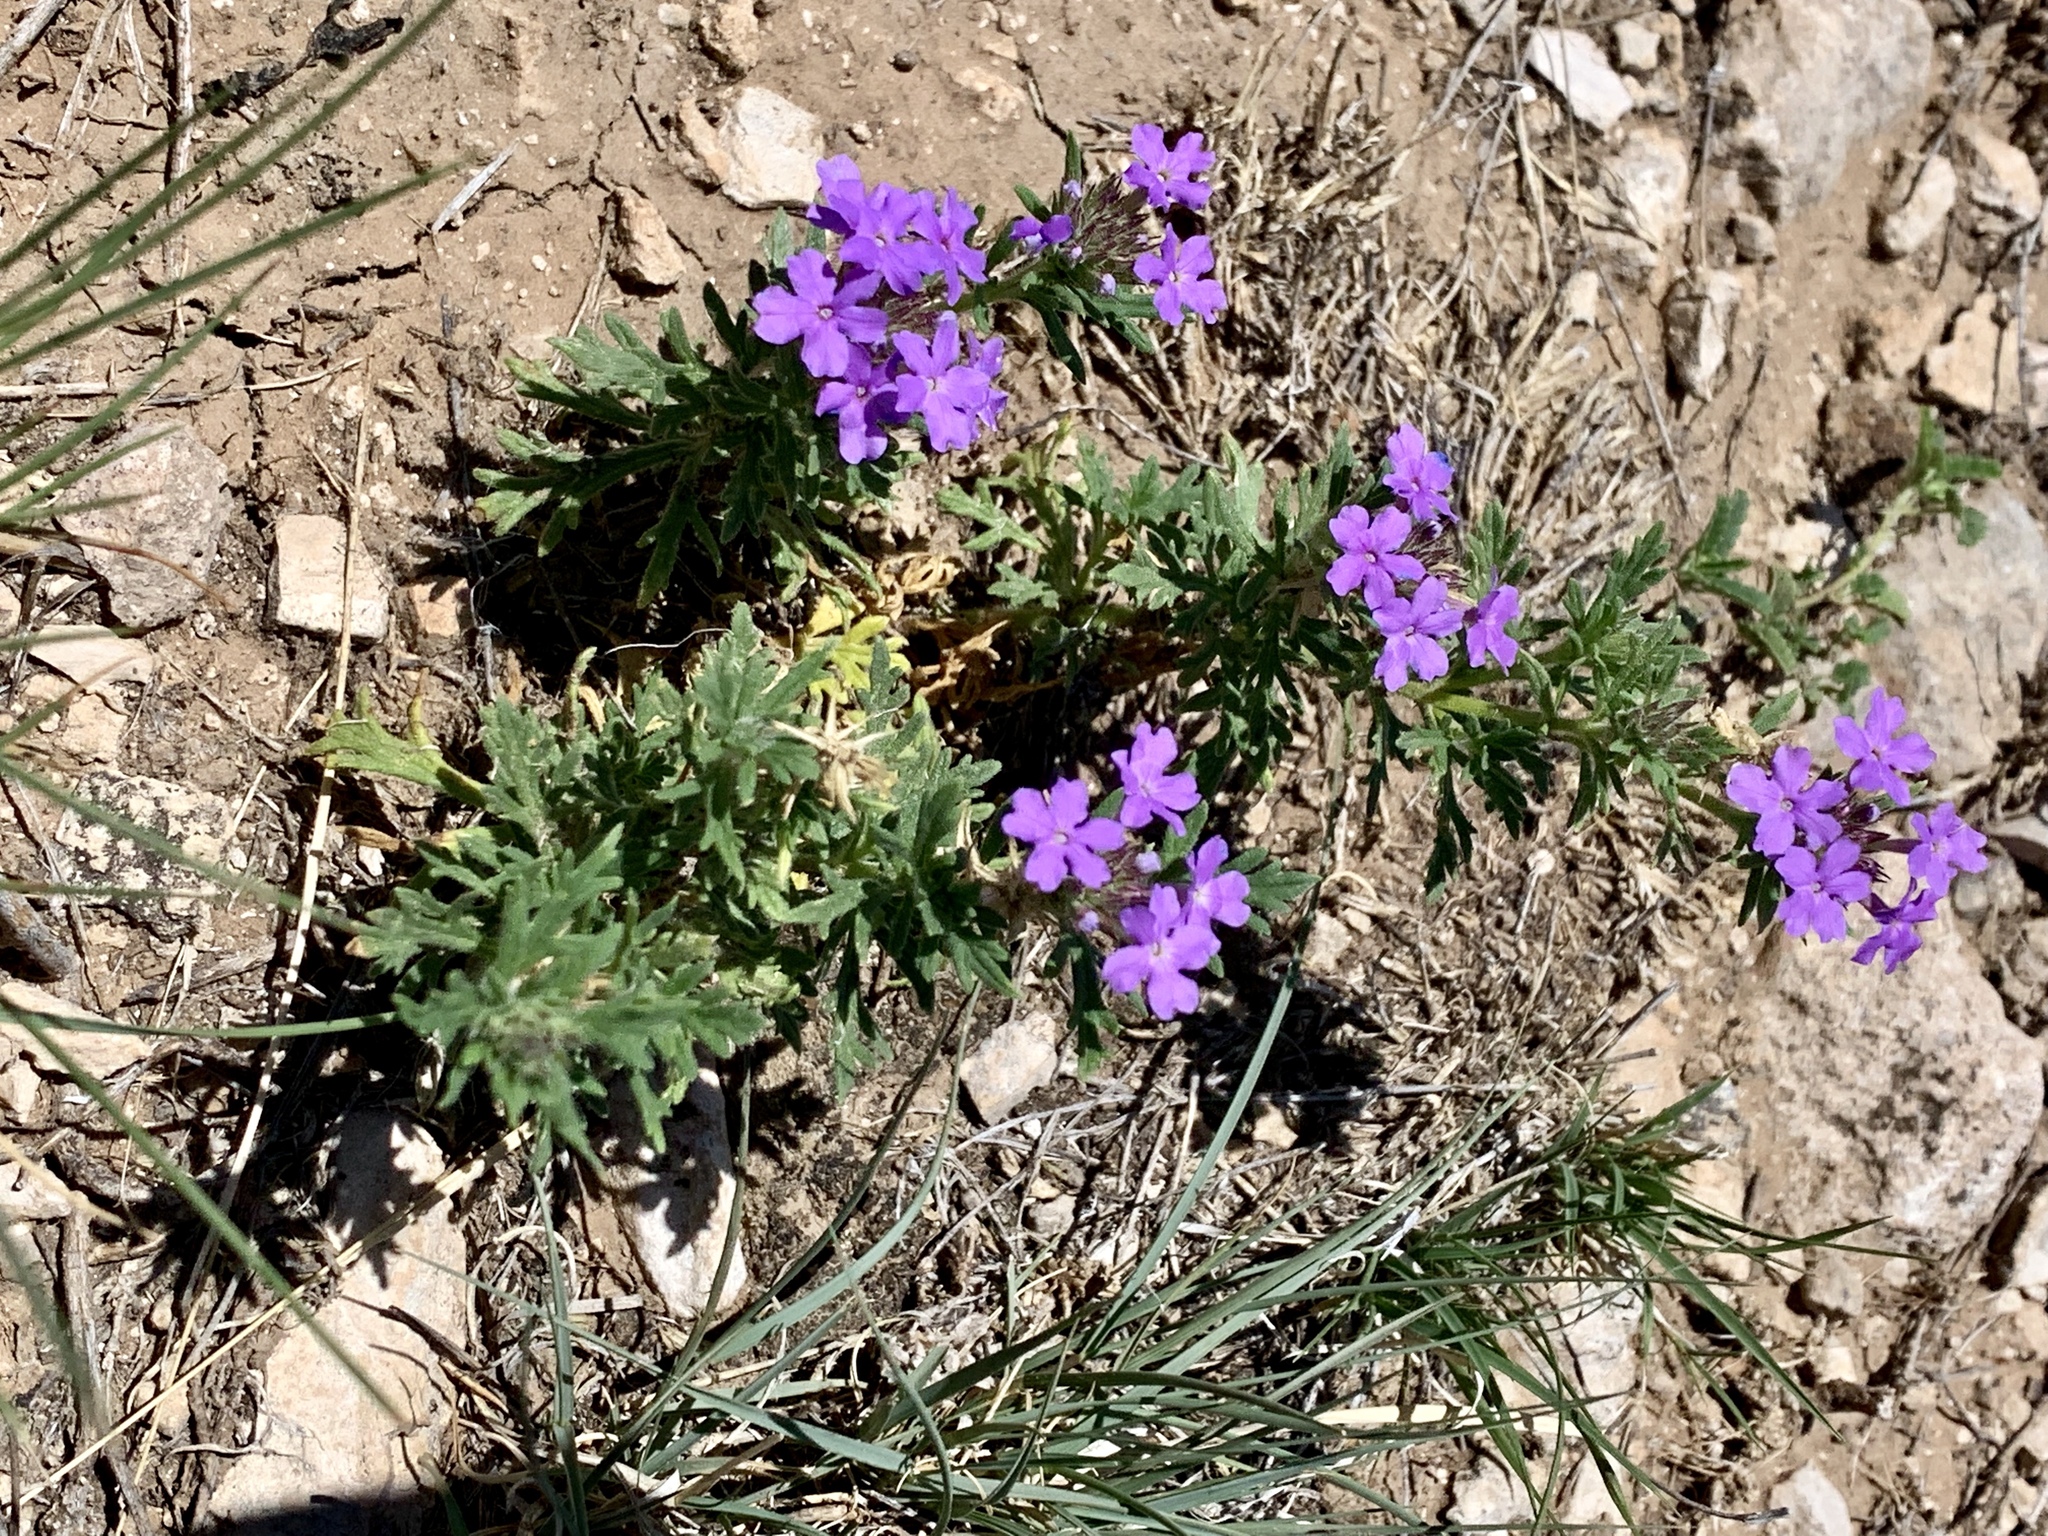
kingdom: Plantae
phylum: Tracheophyta
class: Magnoliopsida
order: Lamiales
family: Verbenaceae
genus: Verbena
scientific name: Verbena bipinnatifida
